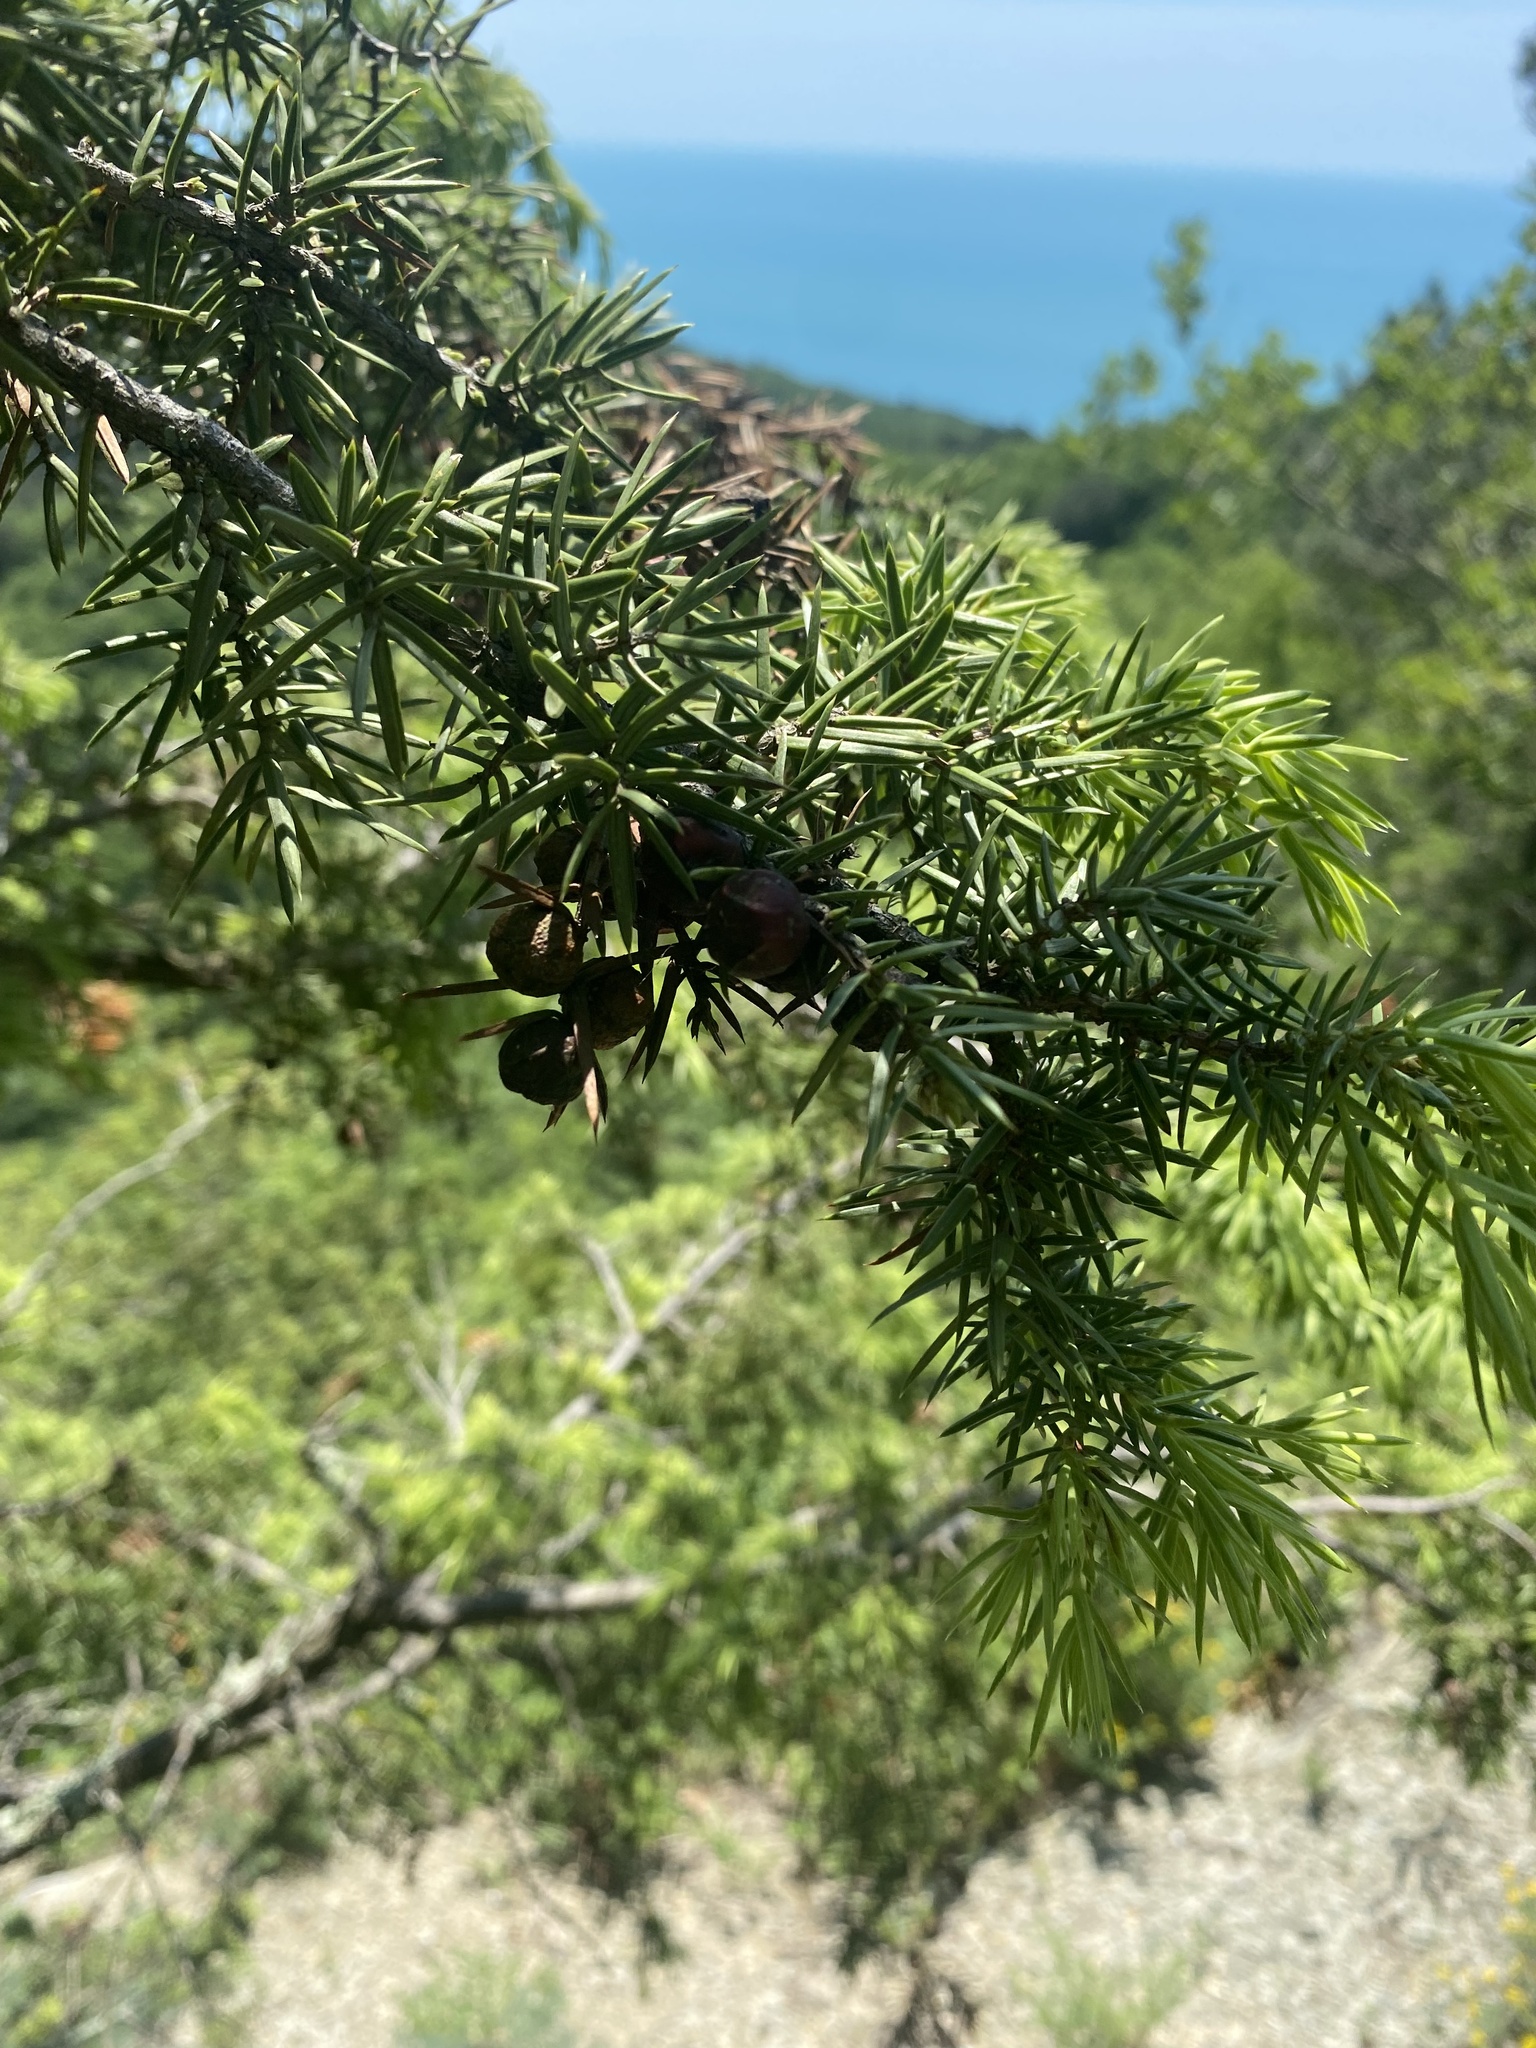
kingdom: Plantae
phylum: Tracheophyta
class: Pinopsida
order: Pinales
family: Cupressaceae
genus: Juniperus
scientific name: Juniperus oxycedrus
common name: Prickly juniper
